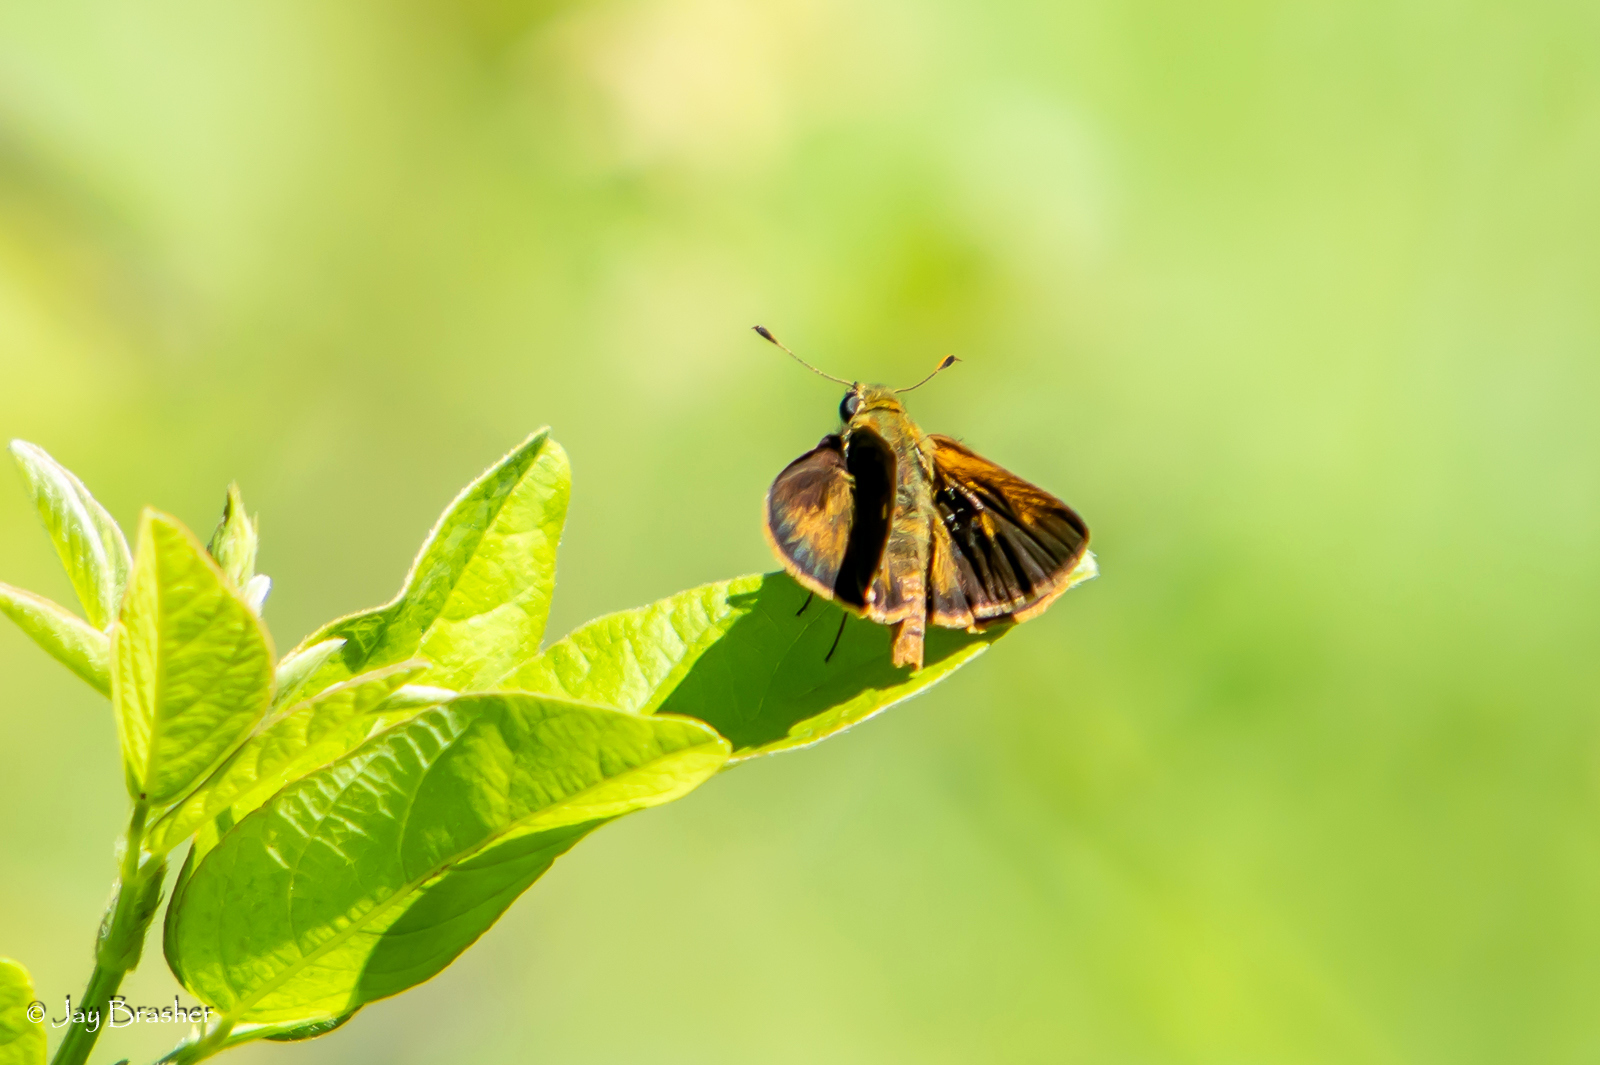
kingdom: Animalia
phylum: Arthropoda
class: Insecta
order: Lepidoptera
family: Hesperiidae
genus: Polites
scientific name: Polites otho
